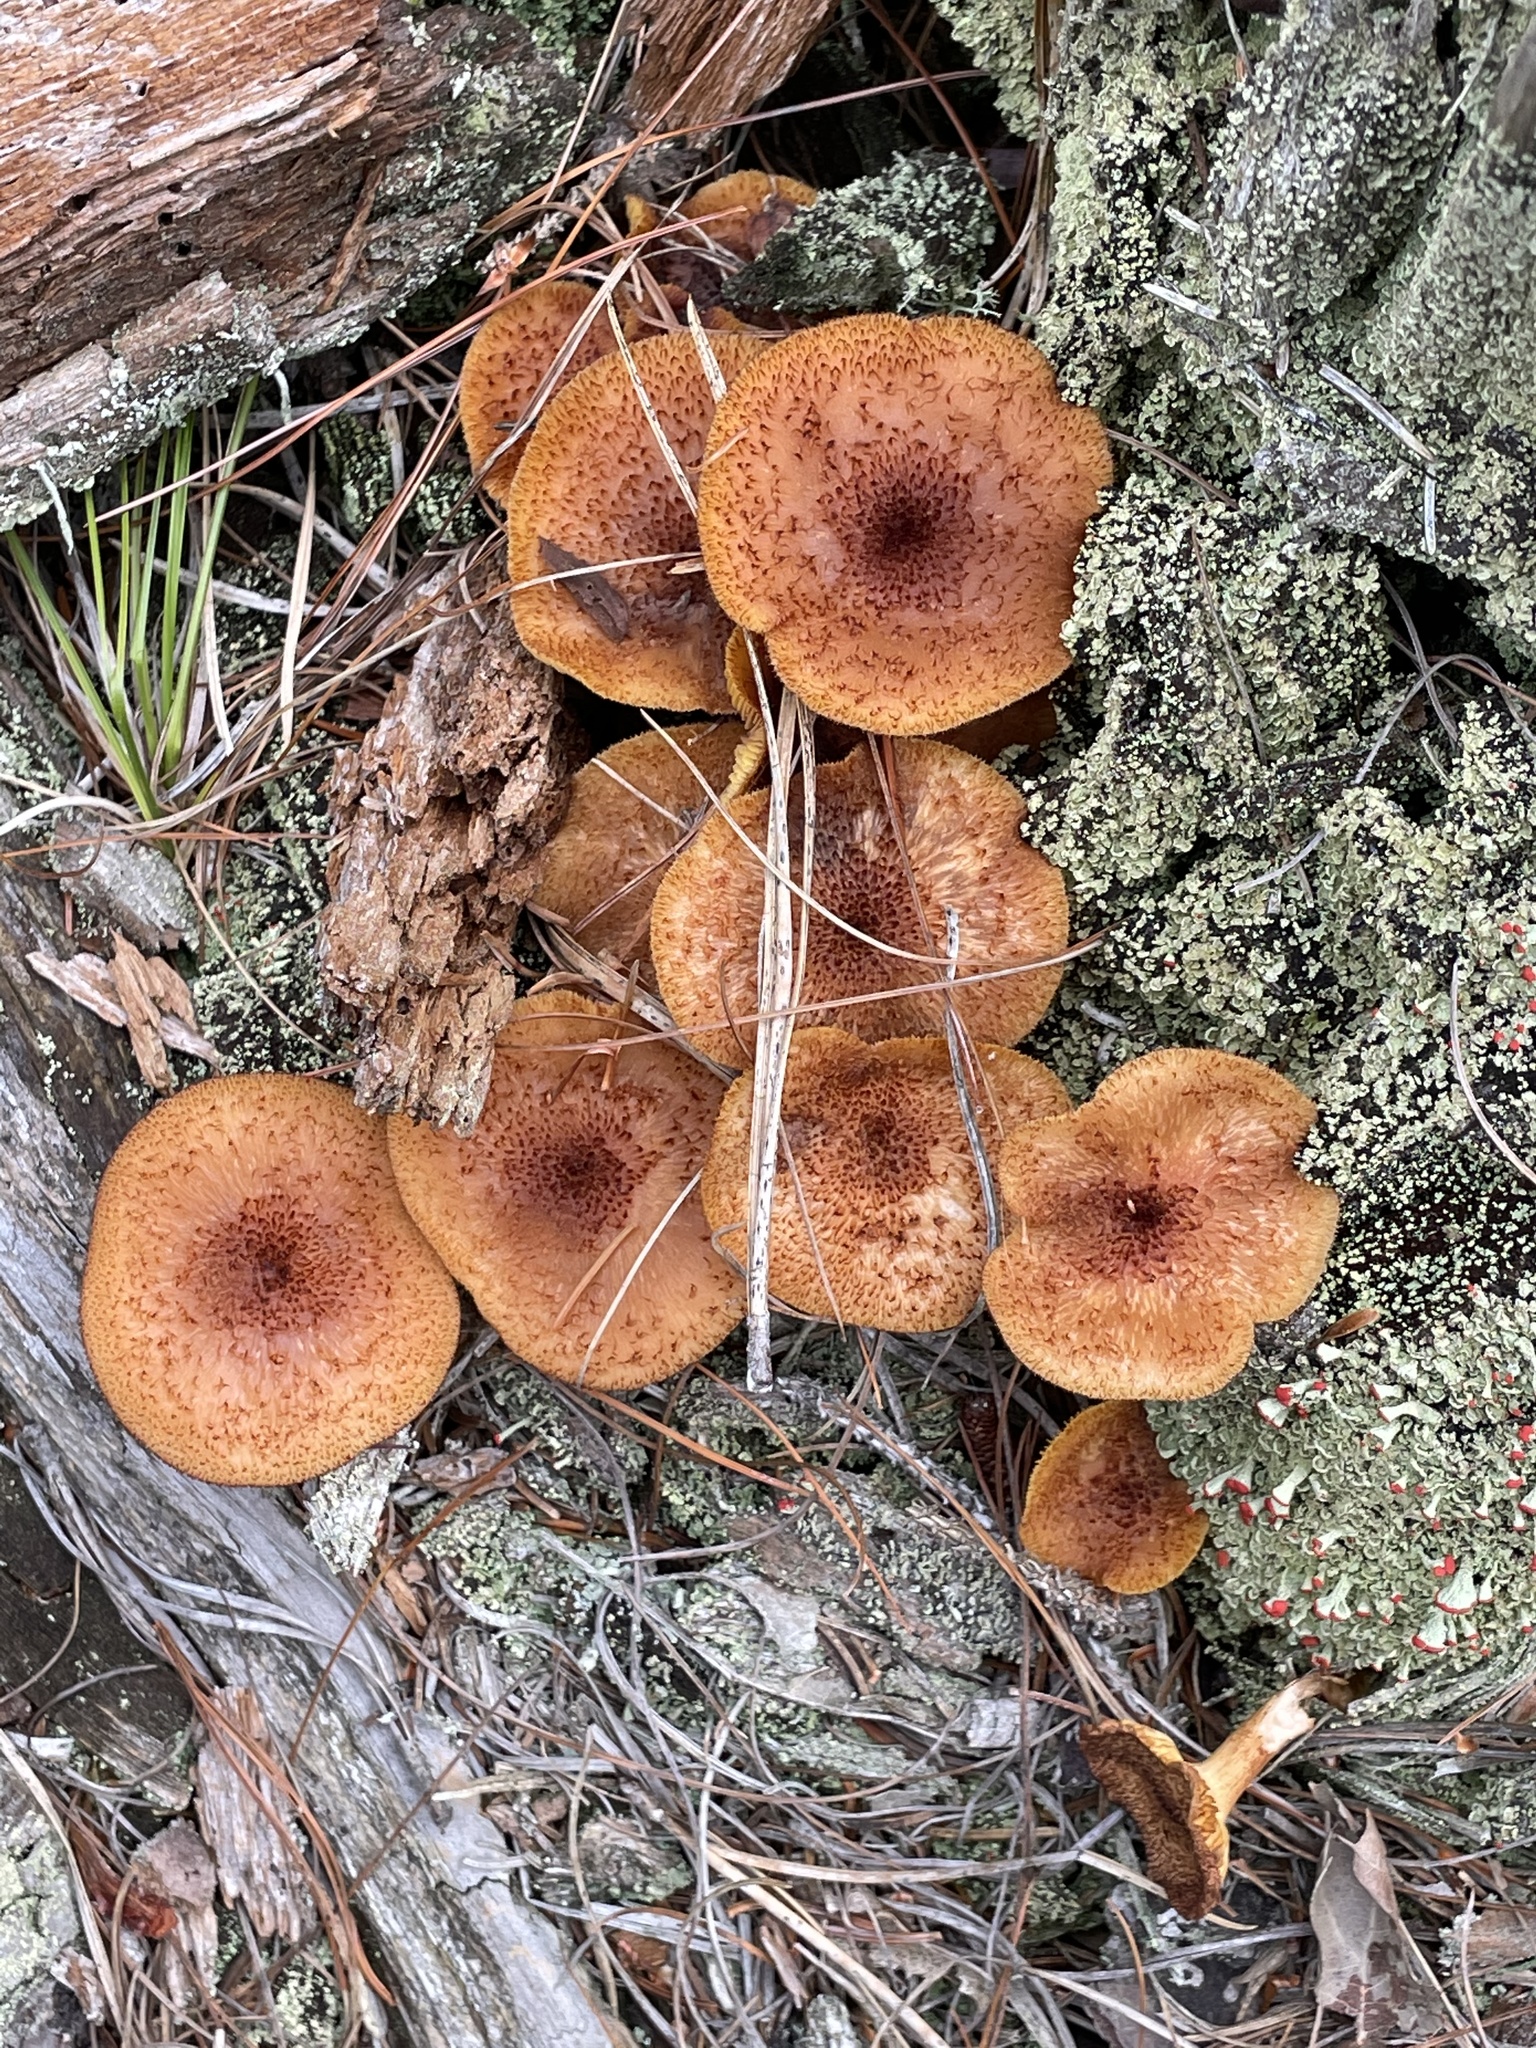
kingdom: Fungi
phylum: Basidiomycota
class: Agaricomycetes
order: Agaricales
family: Tricholomataceae
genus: Tricholomopsis
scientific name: Tricholomopsis formosa
